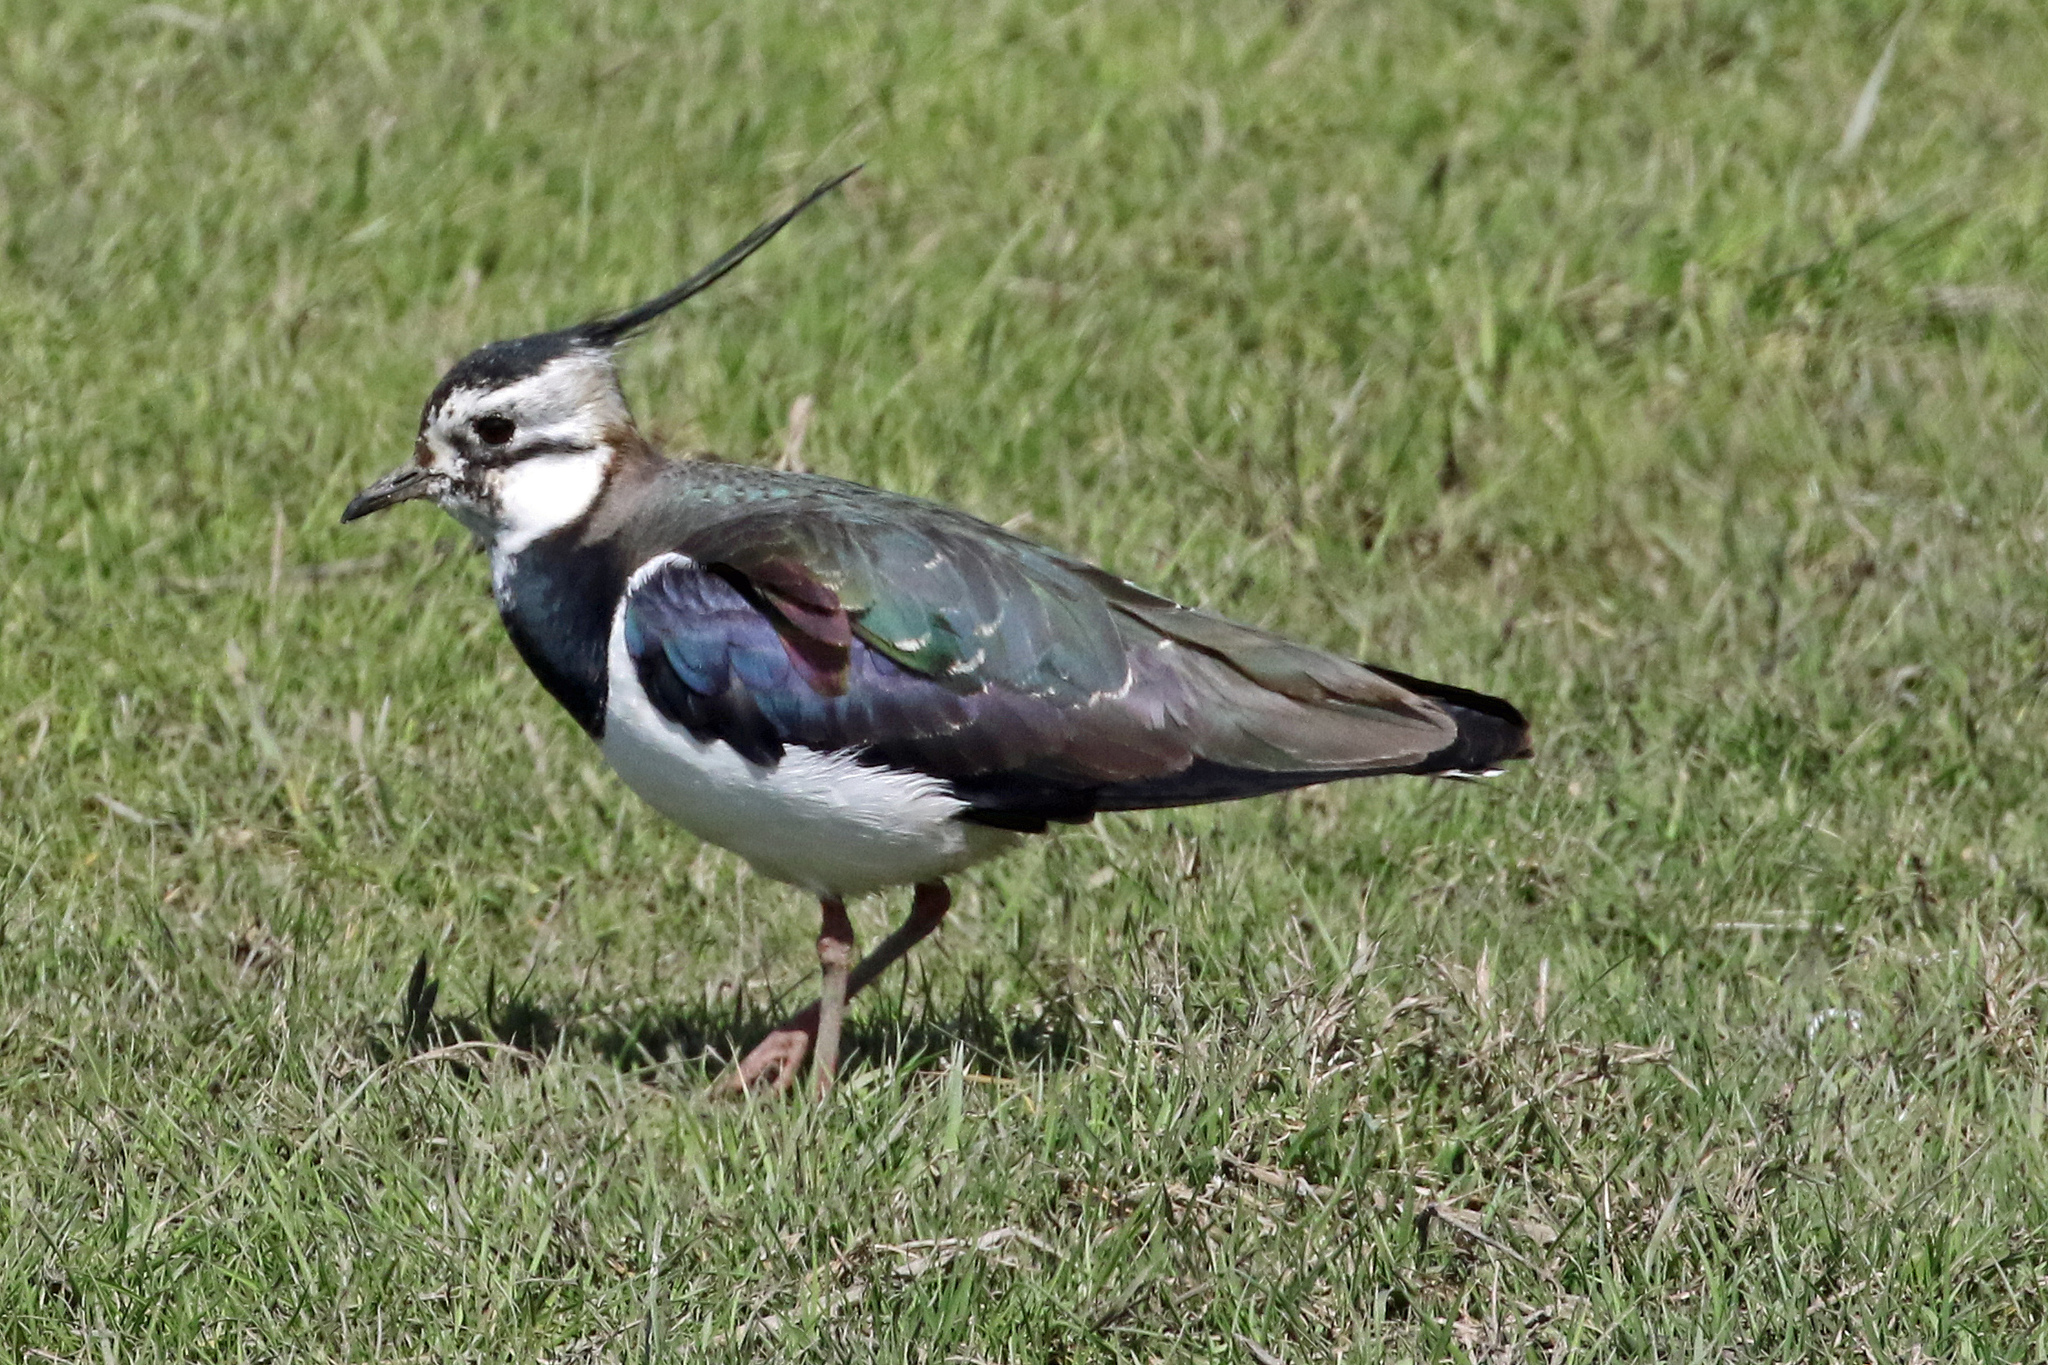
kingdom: Animalia
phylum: Chordata
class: Aves
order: Charadriiformes
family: Charadriidae
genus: Vanellus
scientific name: Vanellus vanellus
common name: Northern lapwing
